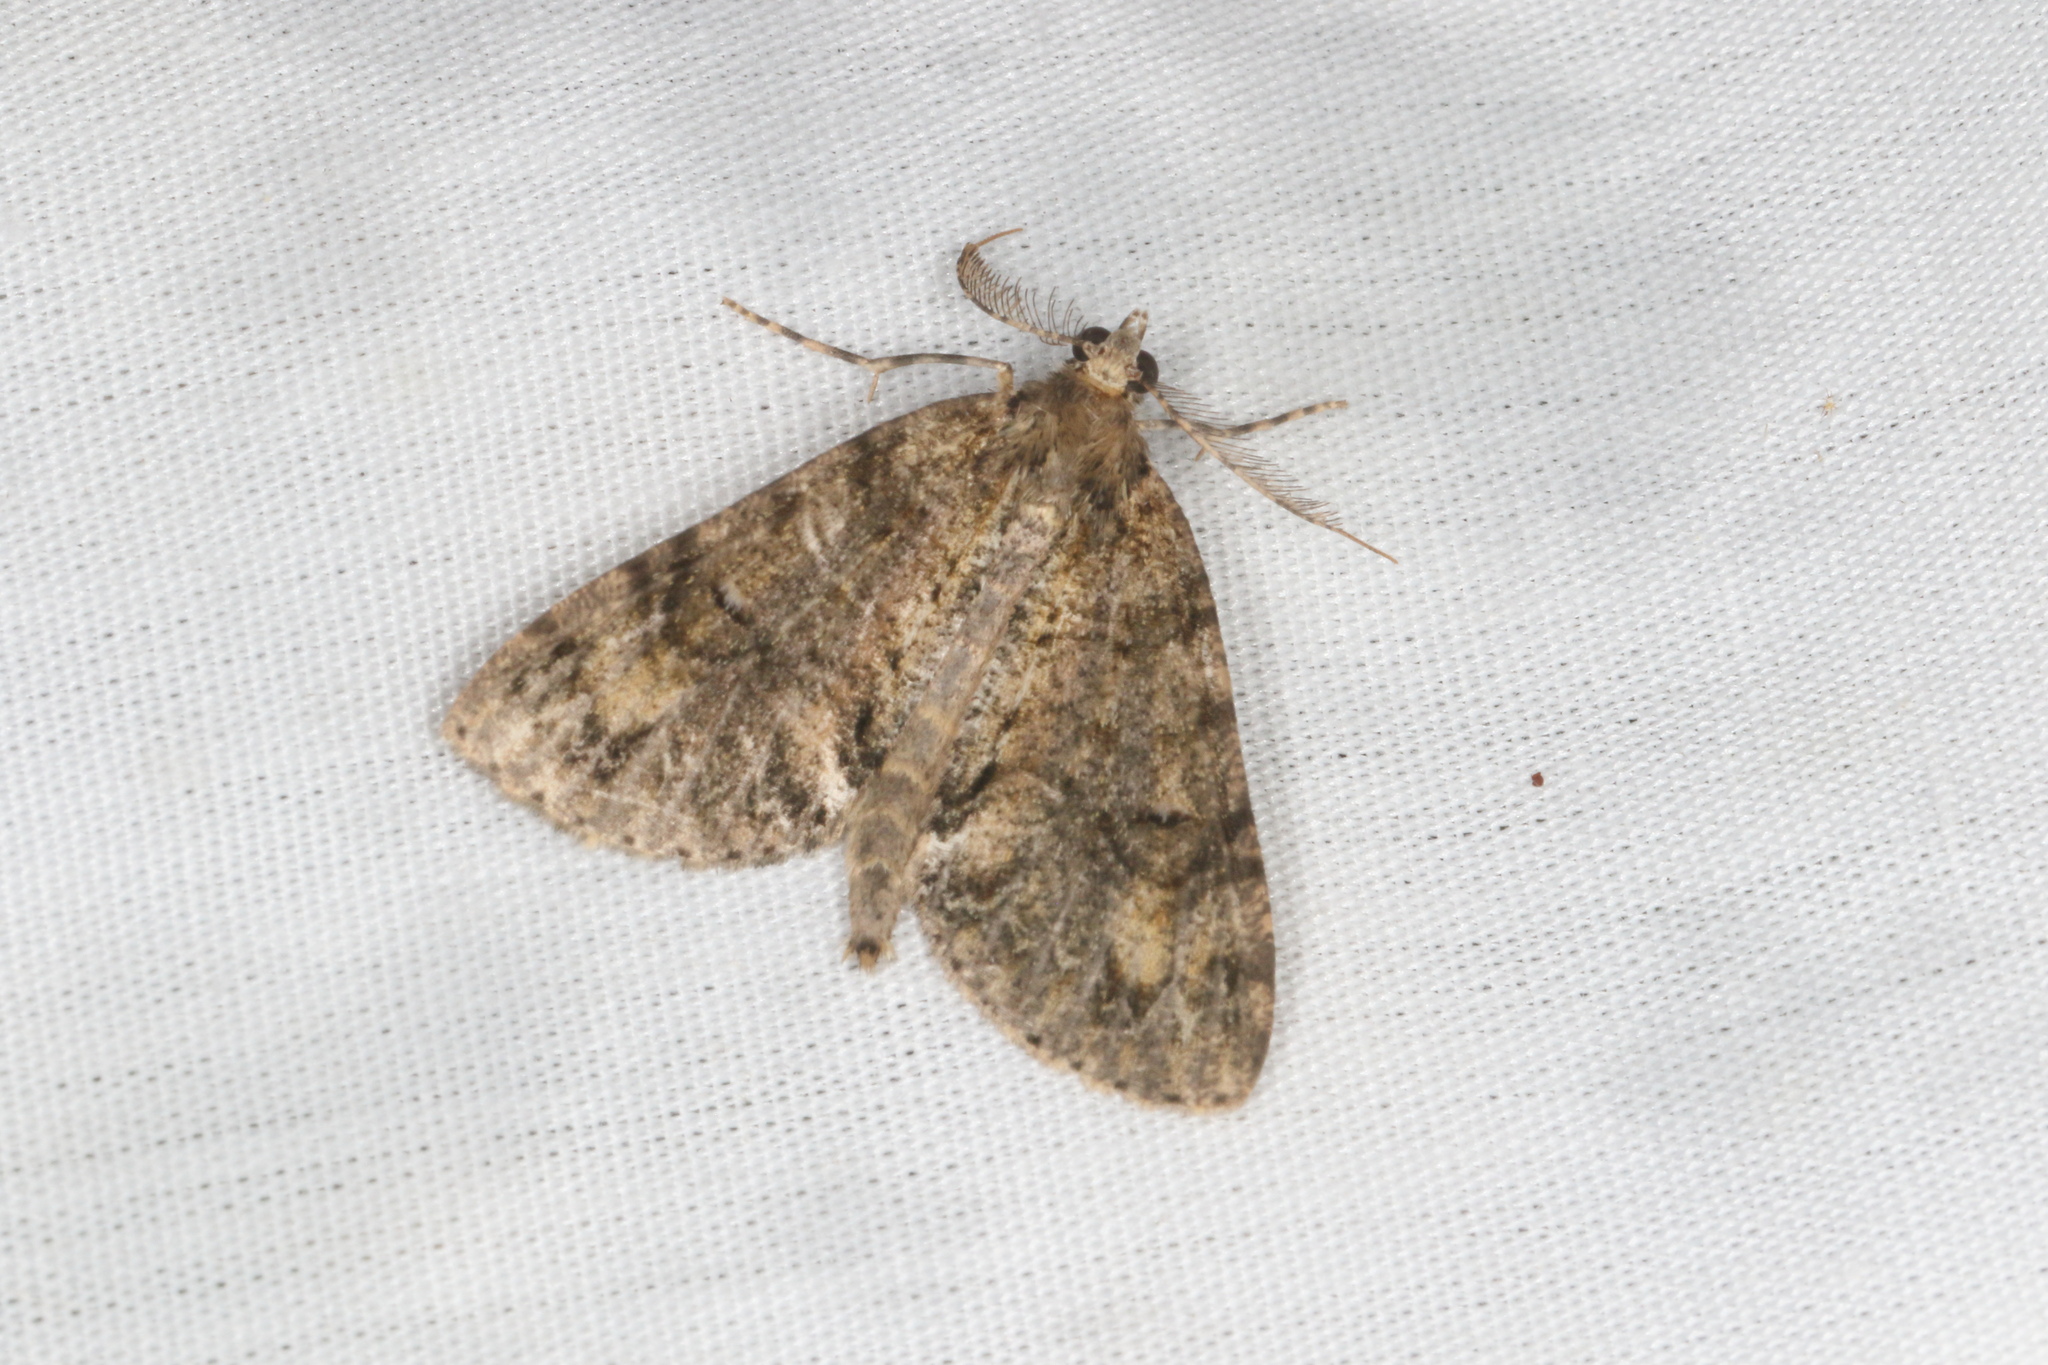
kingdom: Animalia
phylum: Arthropoda
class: Insecta
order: Lepidoptera
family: Geometridae
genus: Pseudocoremia
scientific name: Pseudocoremia suavis
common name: Common forest looper
